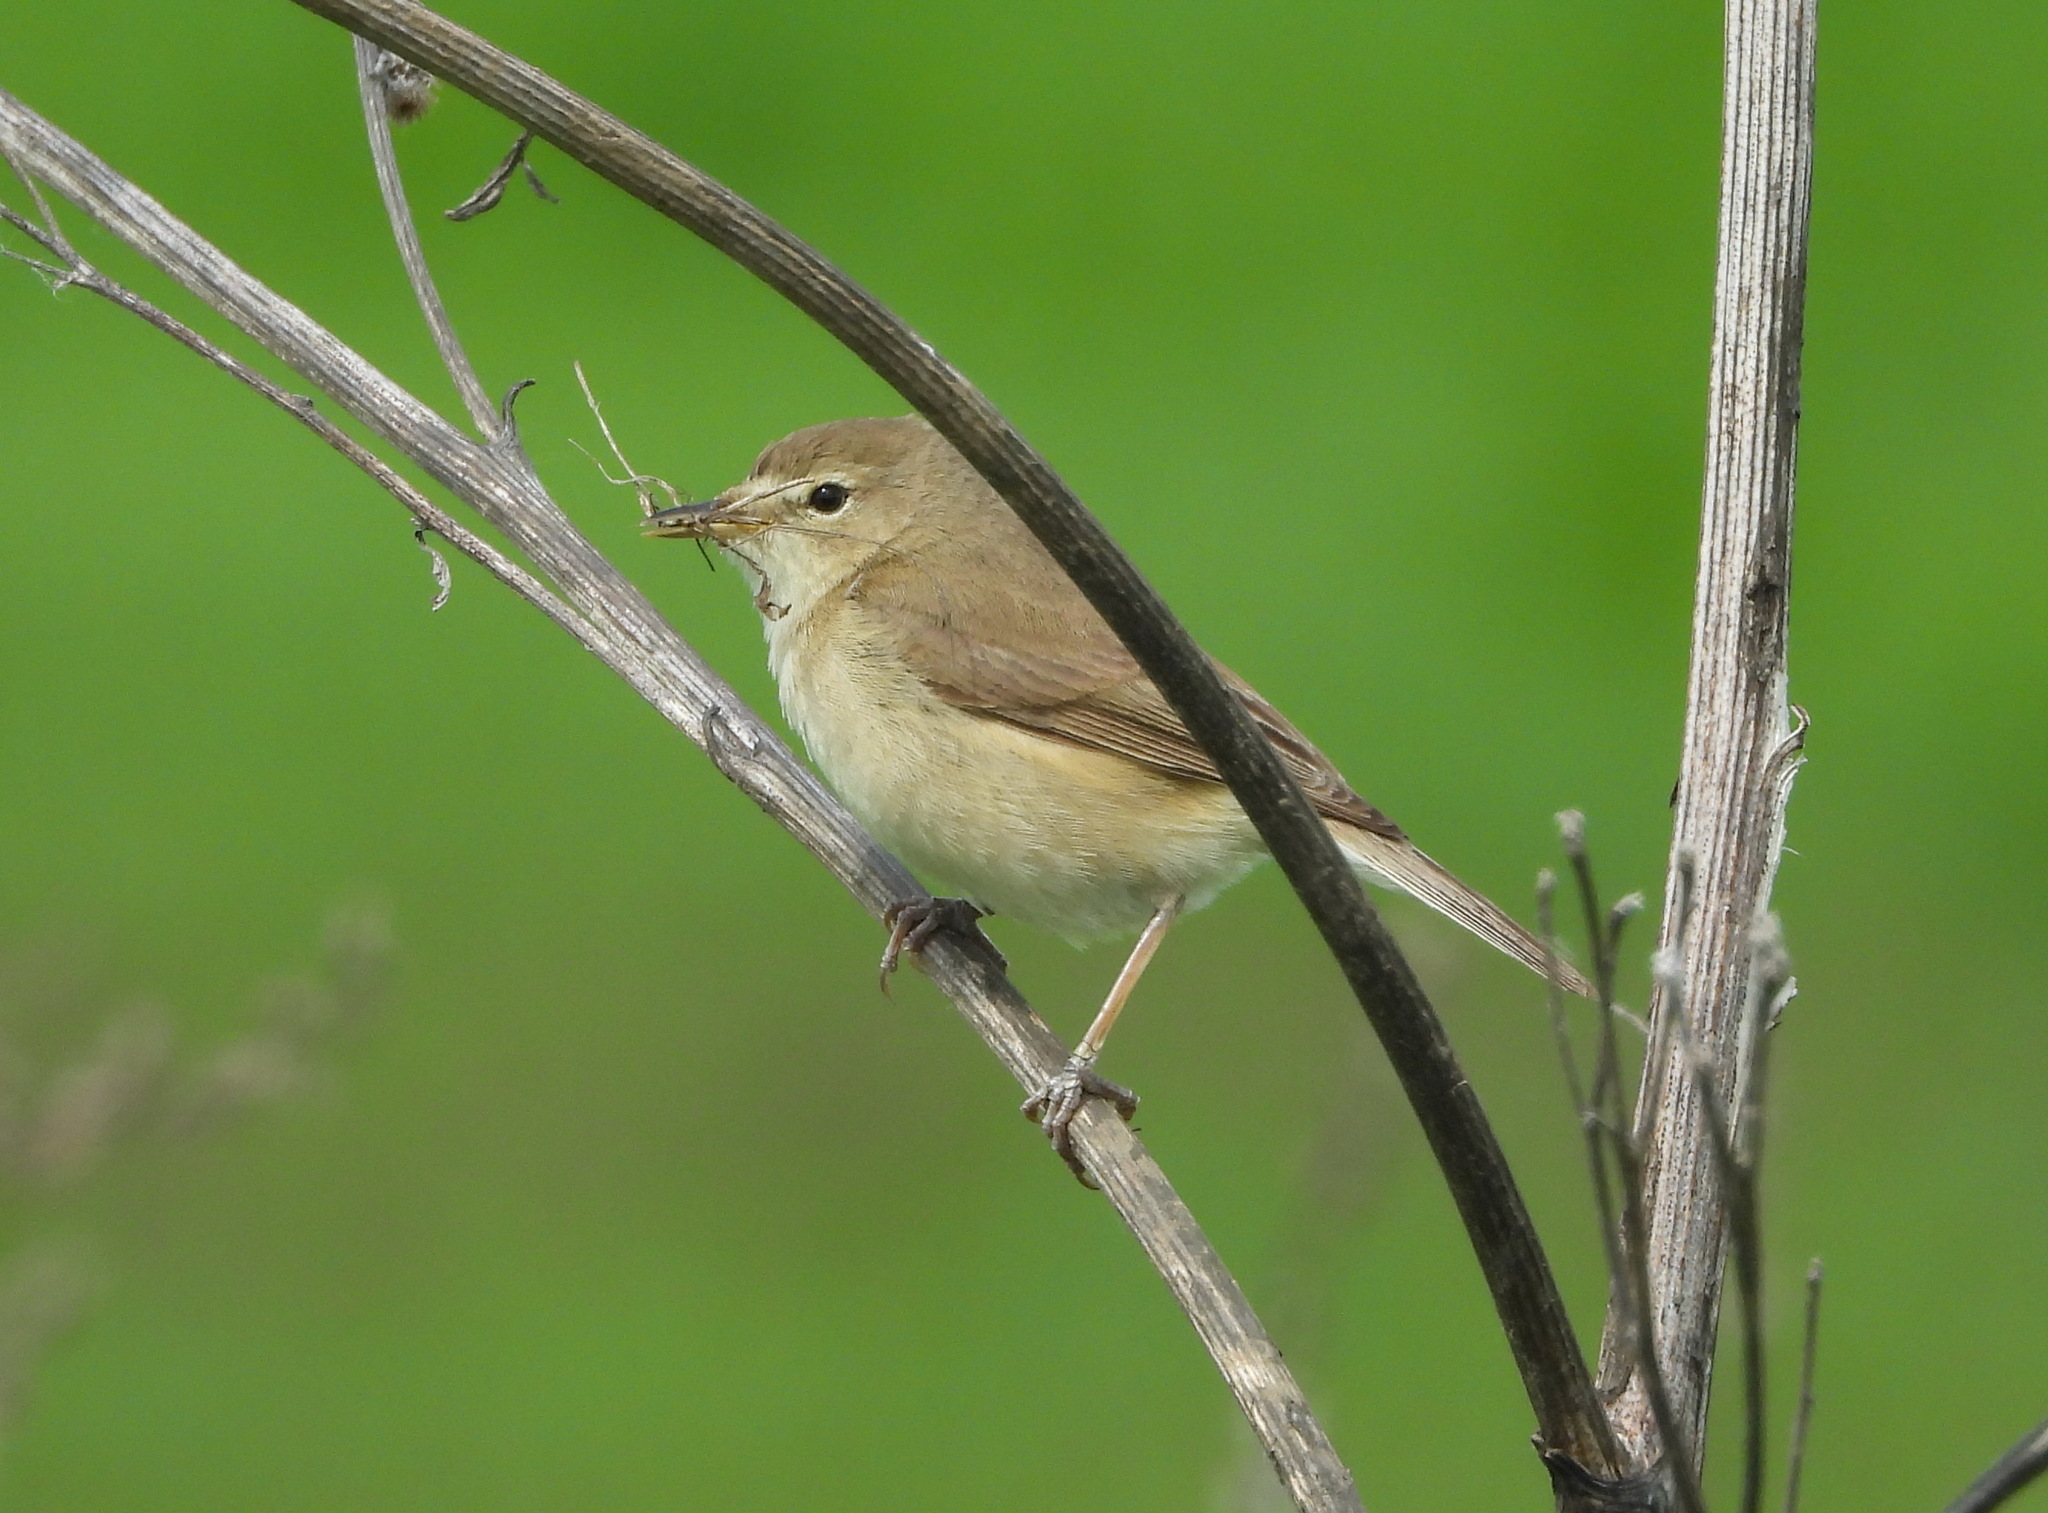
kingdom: Animalia
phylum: Chordata
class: Aves
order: Passeriformes
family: Acrocephalidae
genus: Iduna
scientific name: Iduna caligata
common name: Booted warbler
